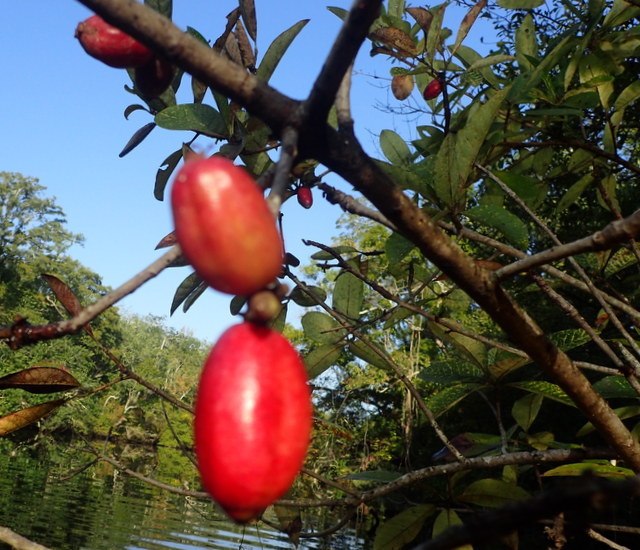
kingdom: Plantae
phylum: Tracheophyta
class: Magnoliopsida
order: Cornales
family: Nyssaceae
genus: Nyssa
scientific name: Nyssa ogeche
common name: Ogeechee tupelo
